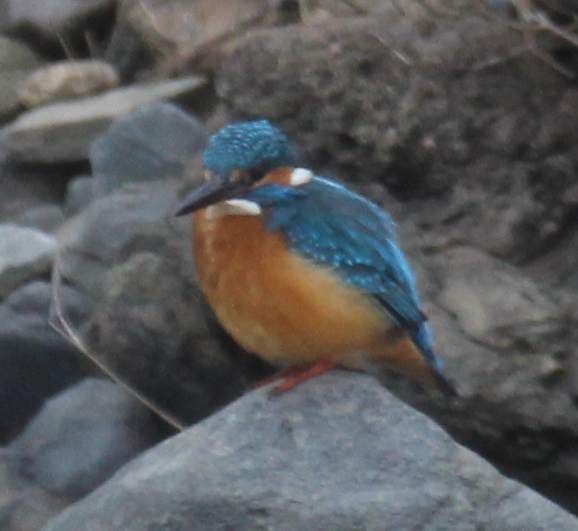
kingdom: Animalia
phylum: Chordata
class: Aves
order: Coraciiformes
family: Alcedinidae
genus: Alcedo
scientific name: Alcedo atthis
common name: Common kingfisher
